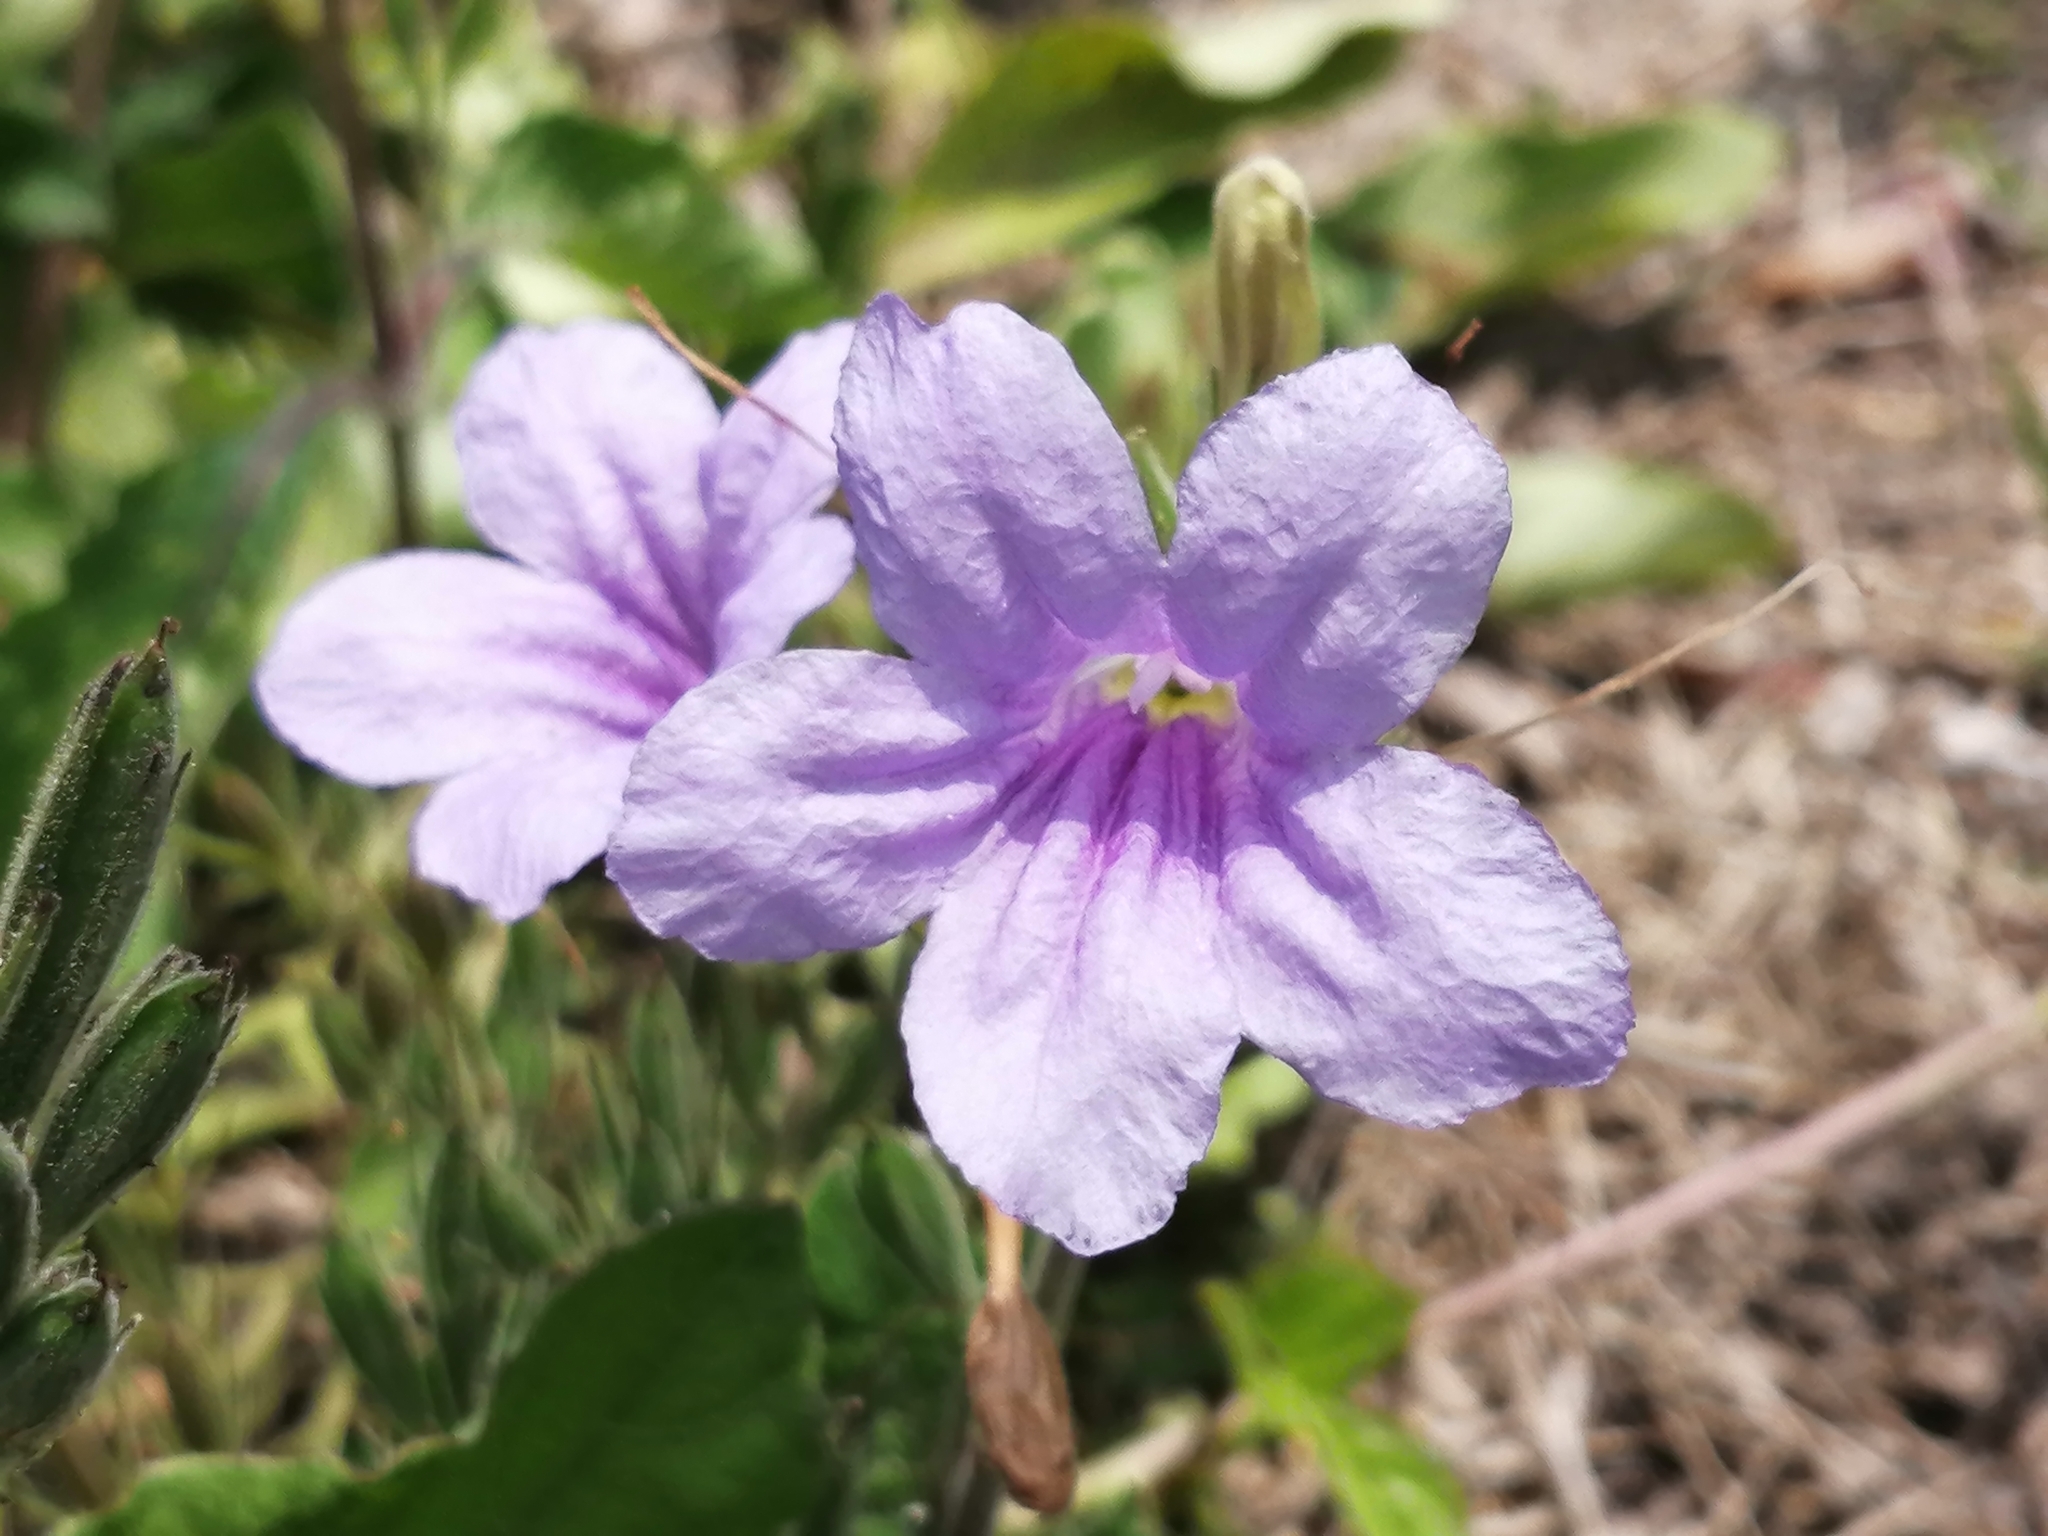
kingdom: Plantae
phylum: Tracheophyta
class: Magnoliopsida
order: Lamiales
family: Acanthaceae
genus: Ruellia
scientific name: Ruellia ciliatiflora
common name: Hairyflower wild petunia
